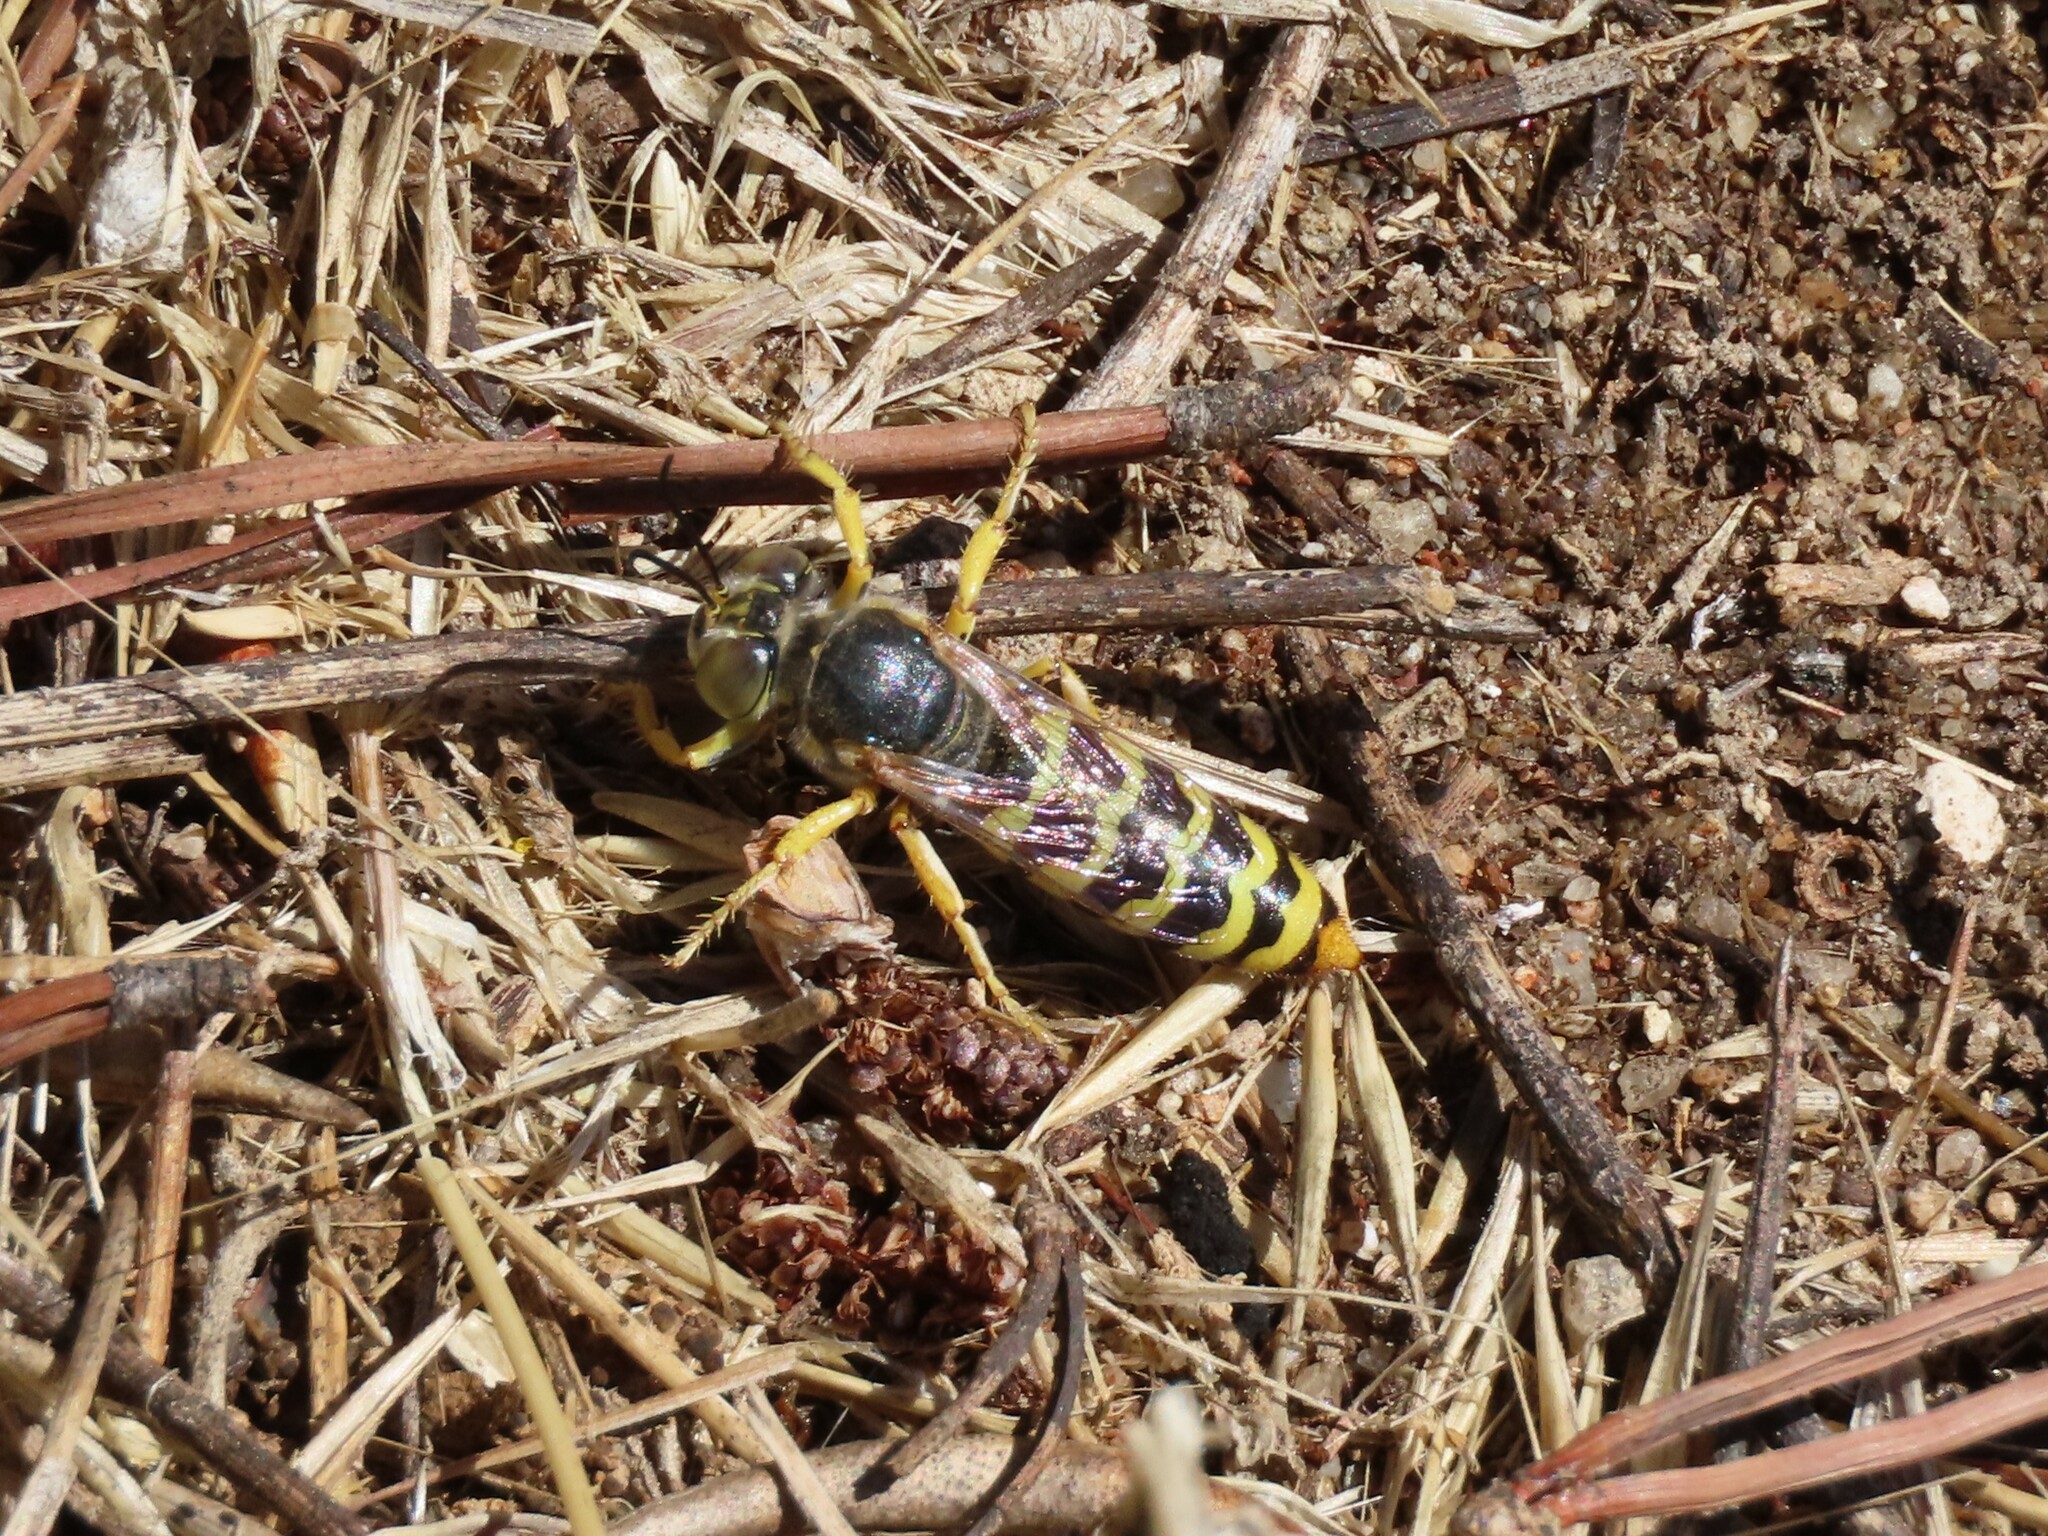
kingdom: Animalia
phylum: Arthropoda
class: Insecta
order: Hymenoptera
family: Crabronidae
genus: Bembix
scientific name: Bembix sinuata
